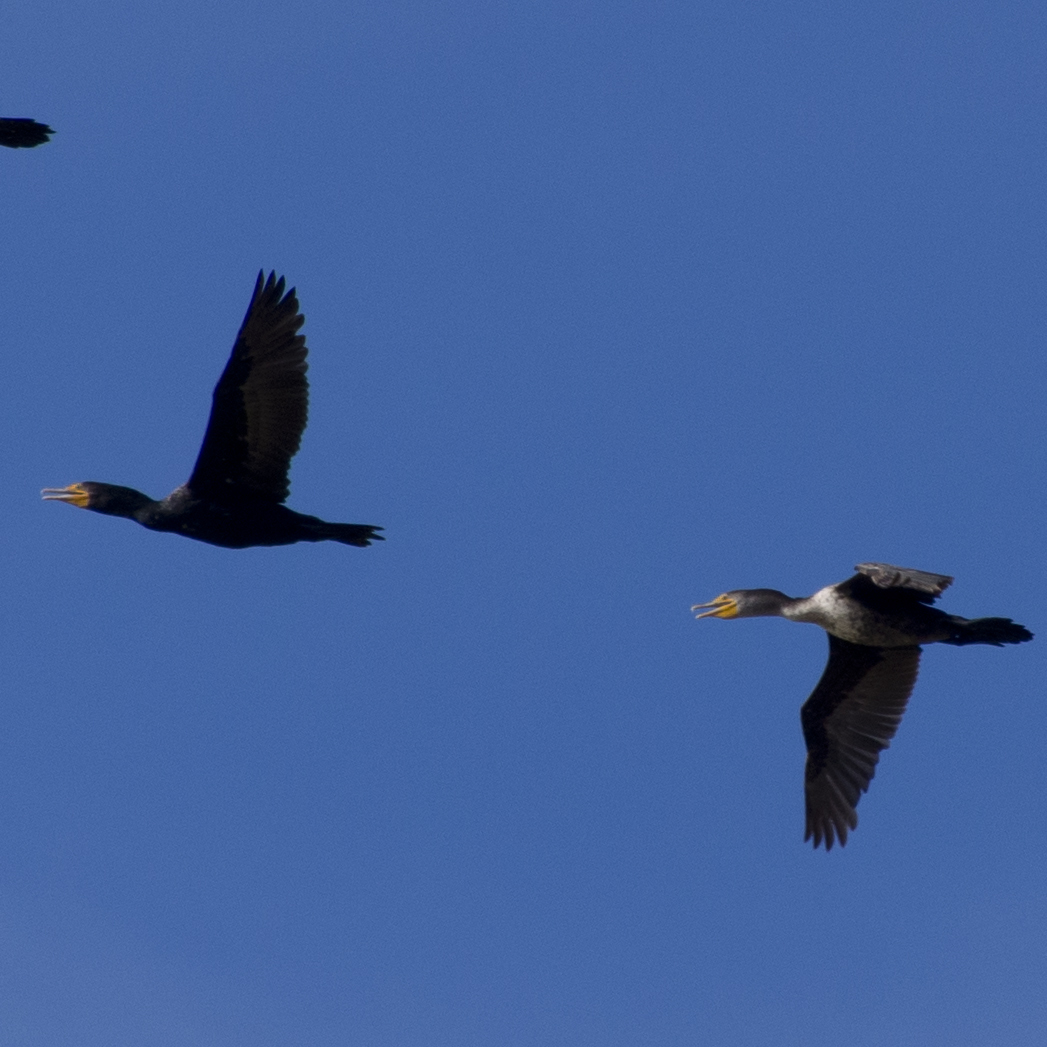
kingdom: Animalia
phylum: Chordata
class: Aves
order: Suliformes
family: Phalacrocoracidae
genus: Phalacrocorax
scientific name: Phalacrocorax auritus
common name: Double-crested cormorant
